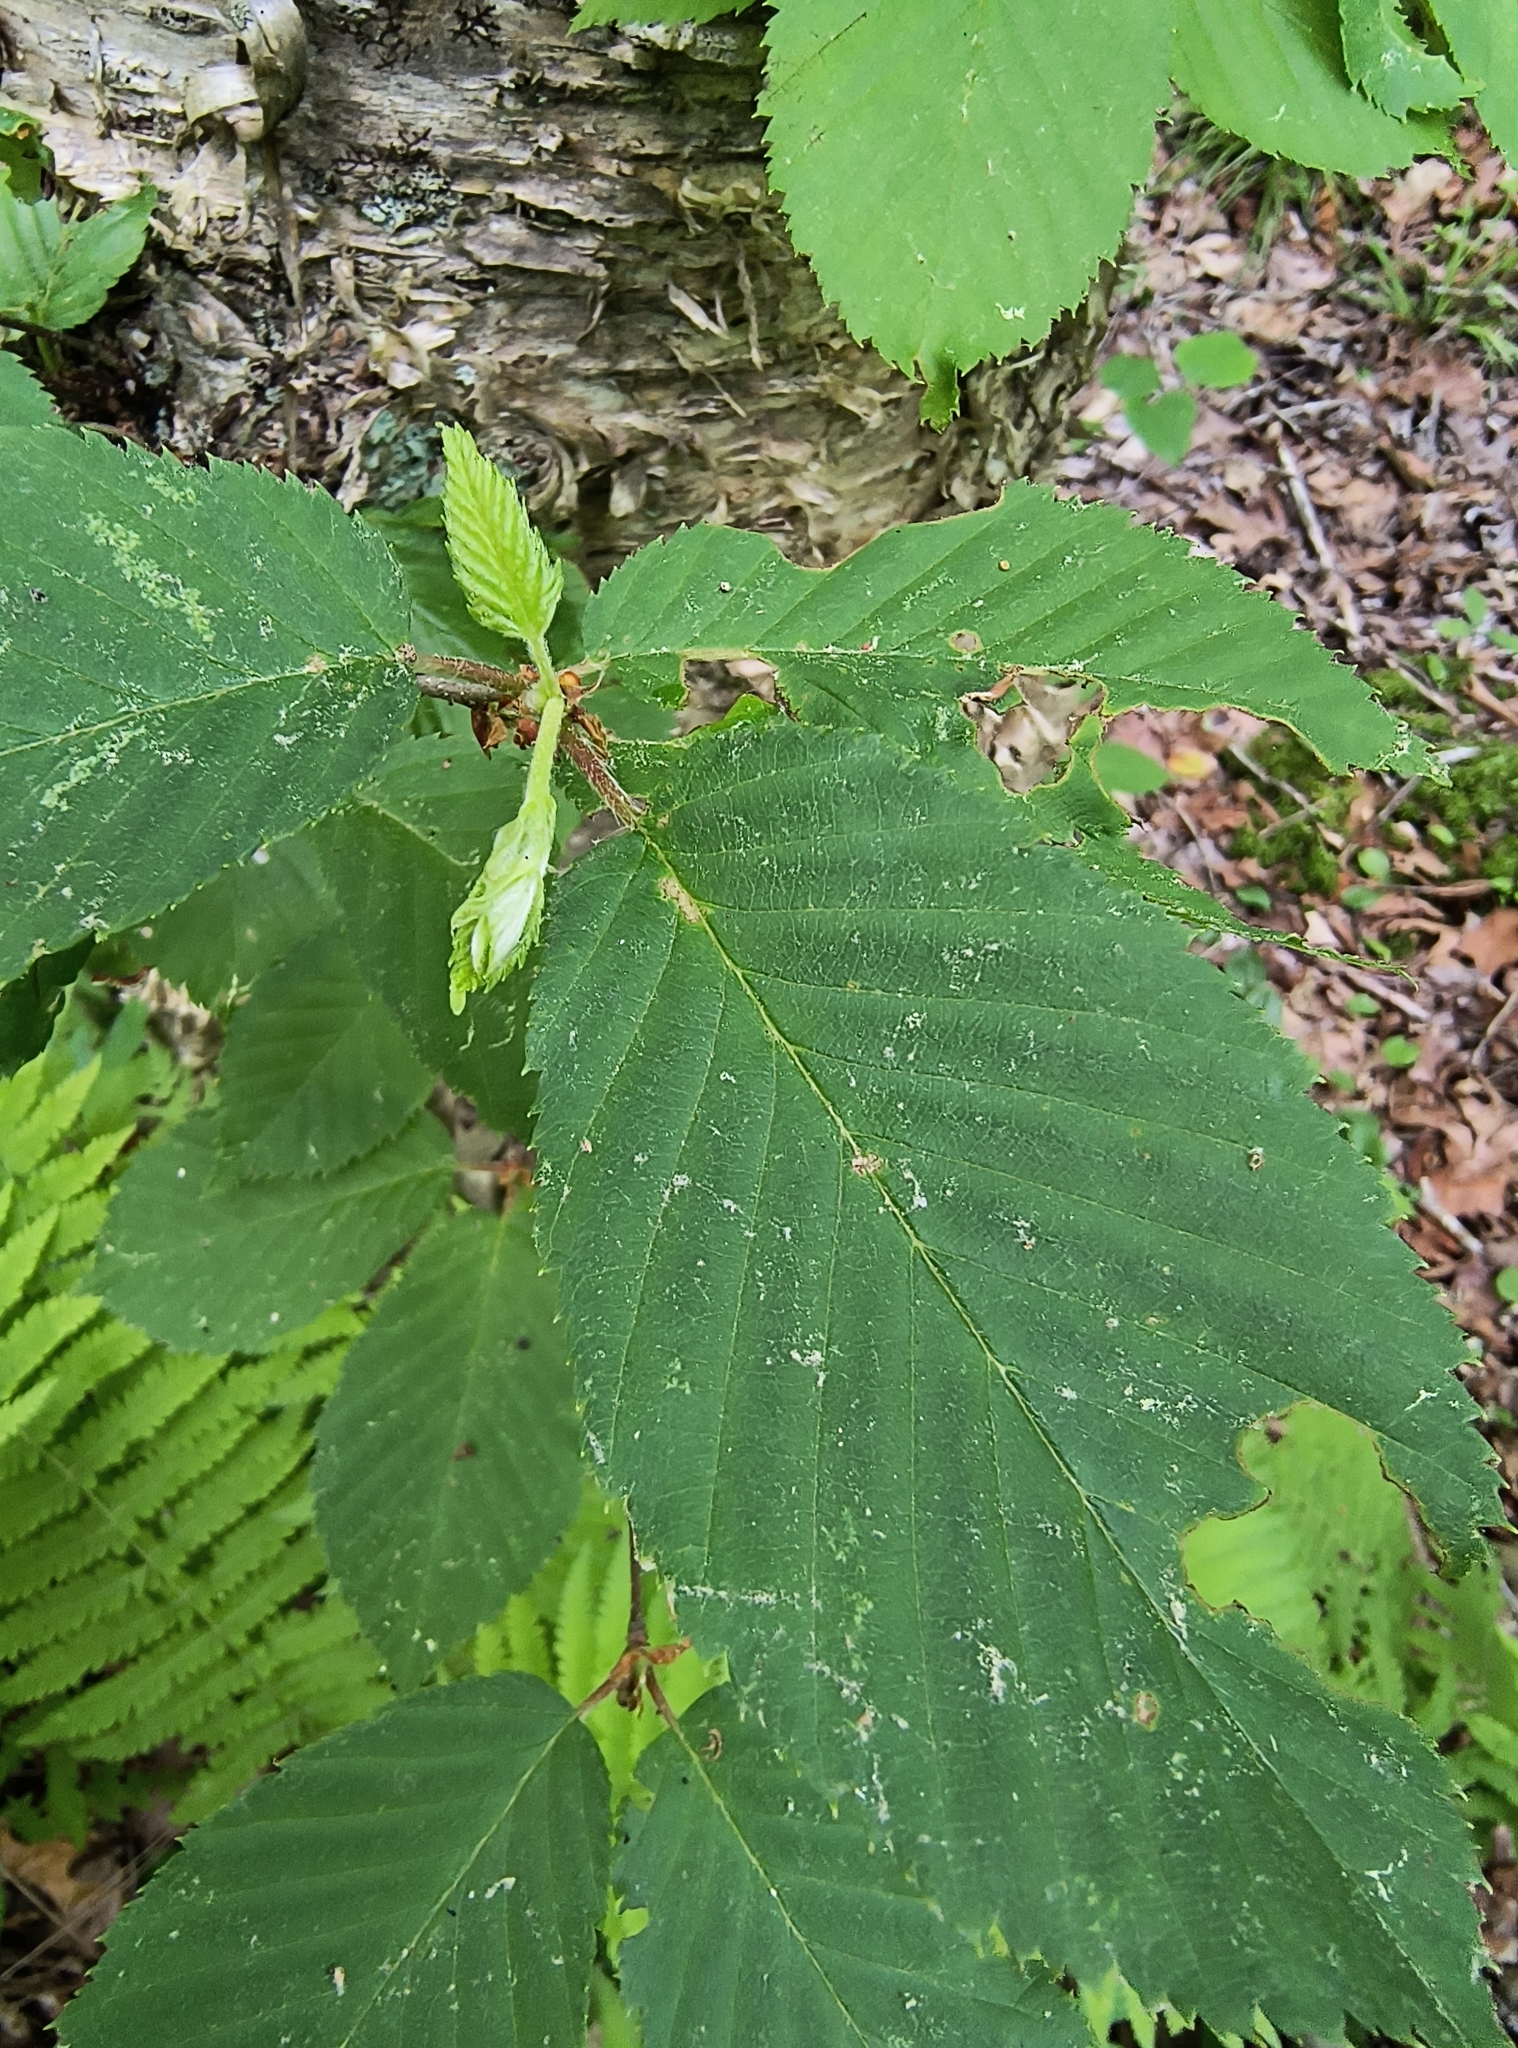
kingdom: Plantae
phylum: Tracheophyta
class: Magnoliopsida
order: Fagales
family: Betulaceae
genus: Betula
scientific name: Betula alleghaniensis
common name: Yellow birch
